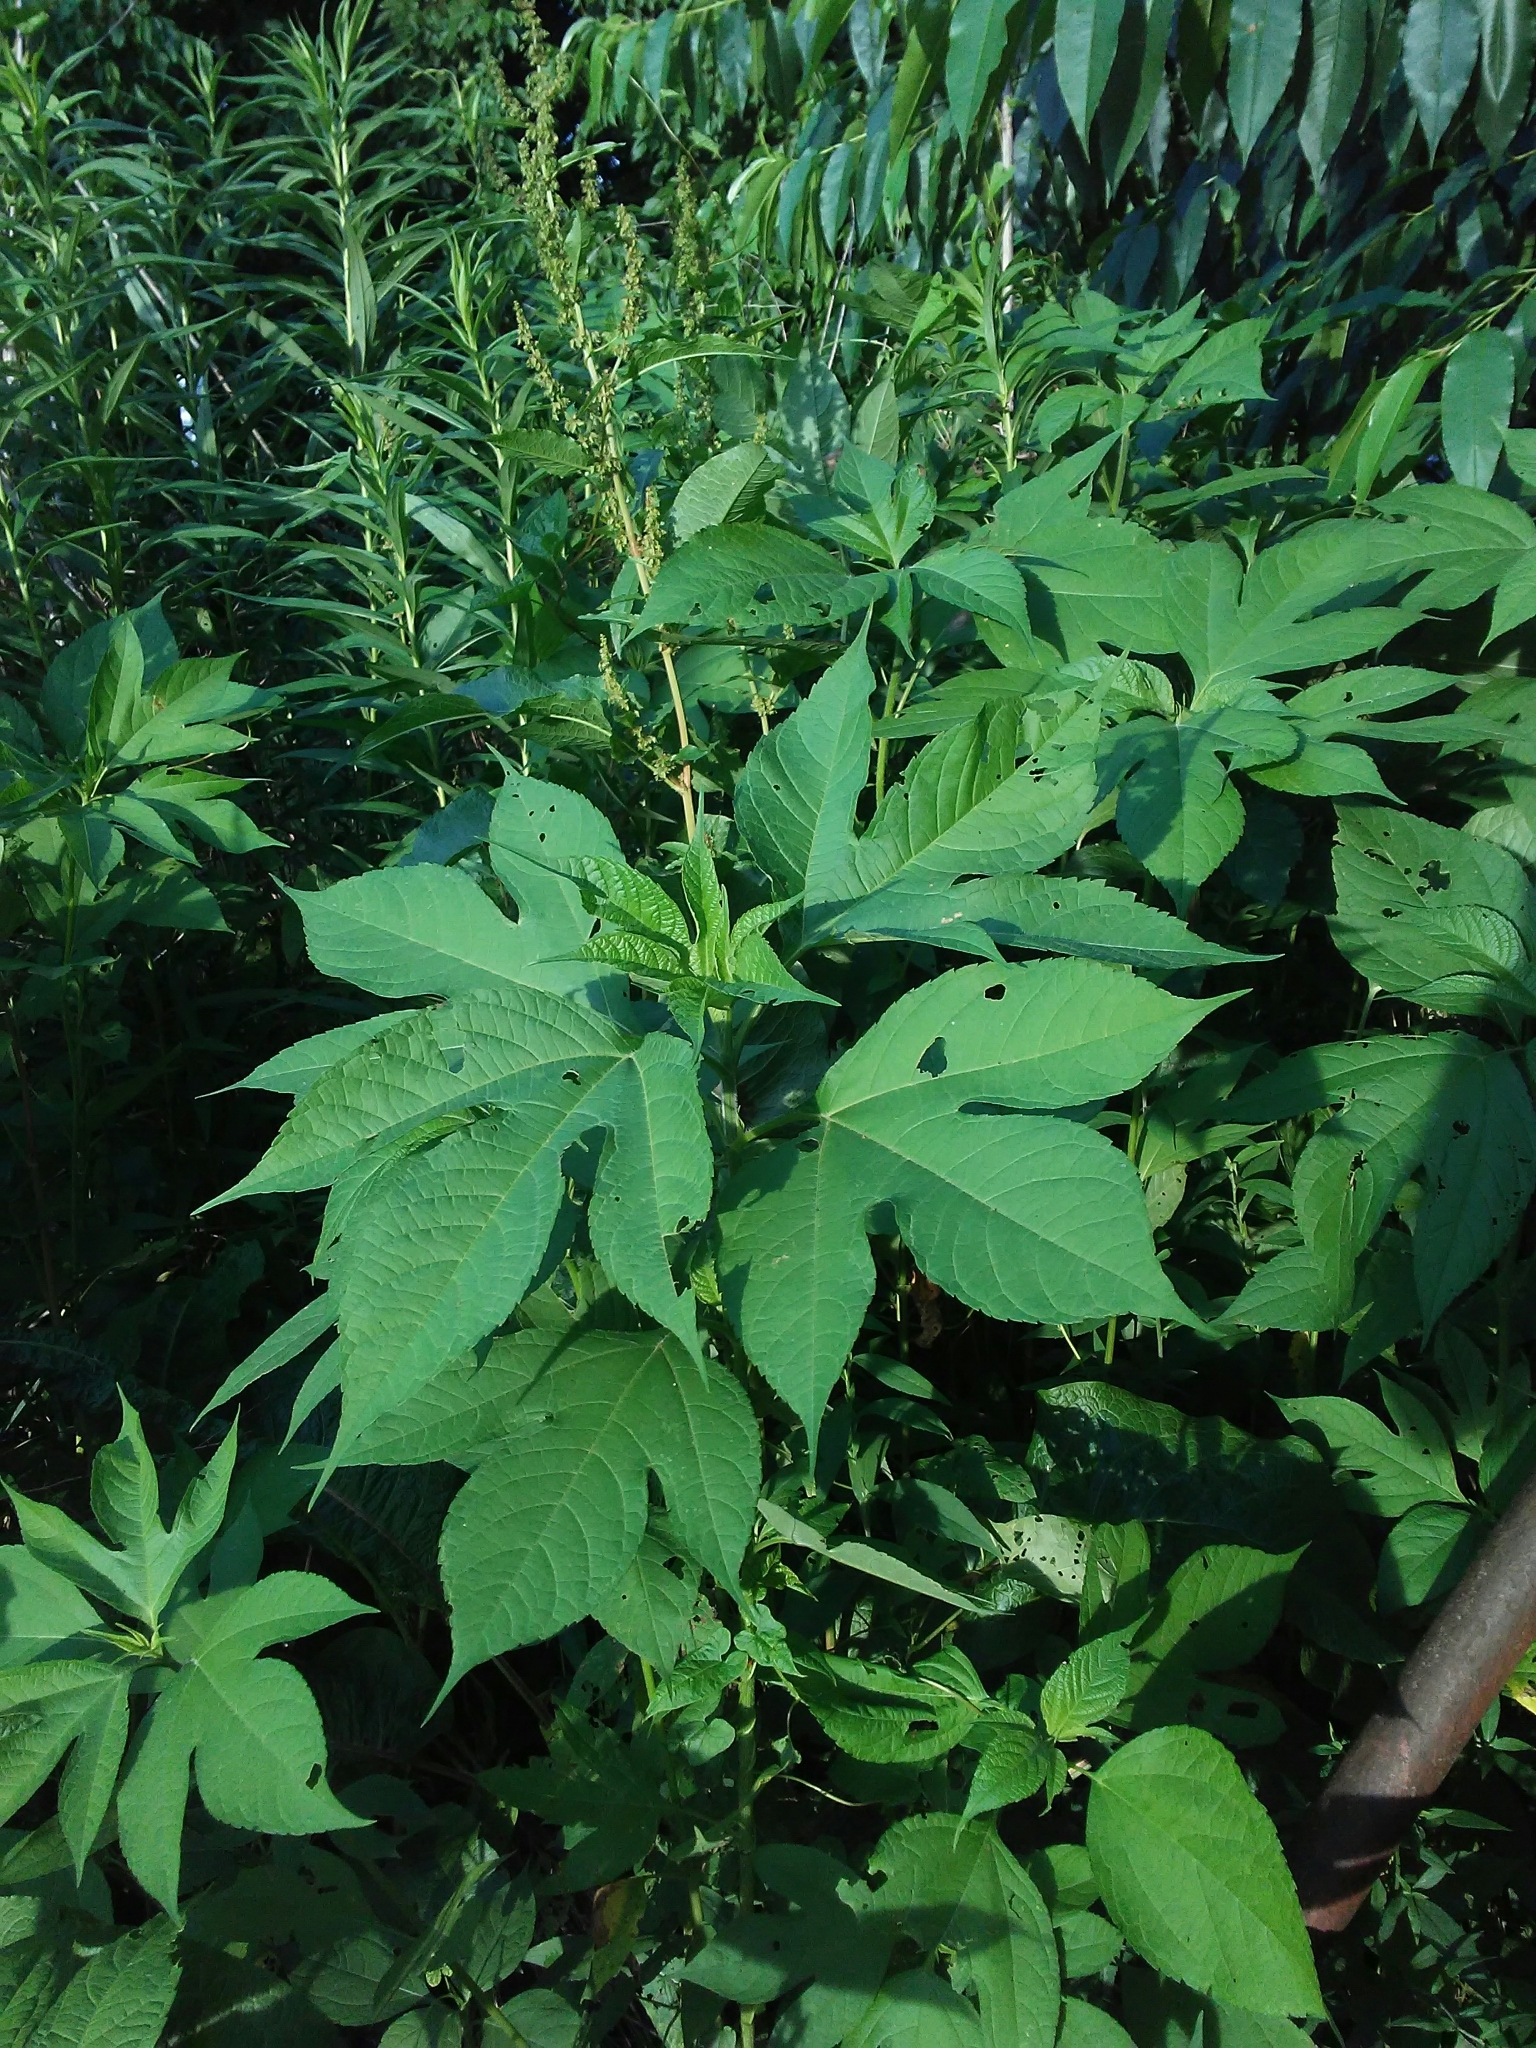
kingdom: Plantae
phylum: Tracheophyta
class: Magnoliopsida
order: Asterales
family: Asteraceae
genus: Ambrosia
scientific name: Ambrosia trifida
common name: Giant ragweed
